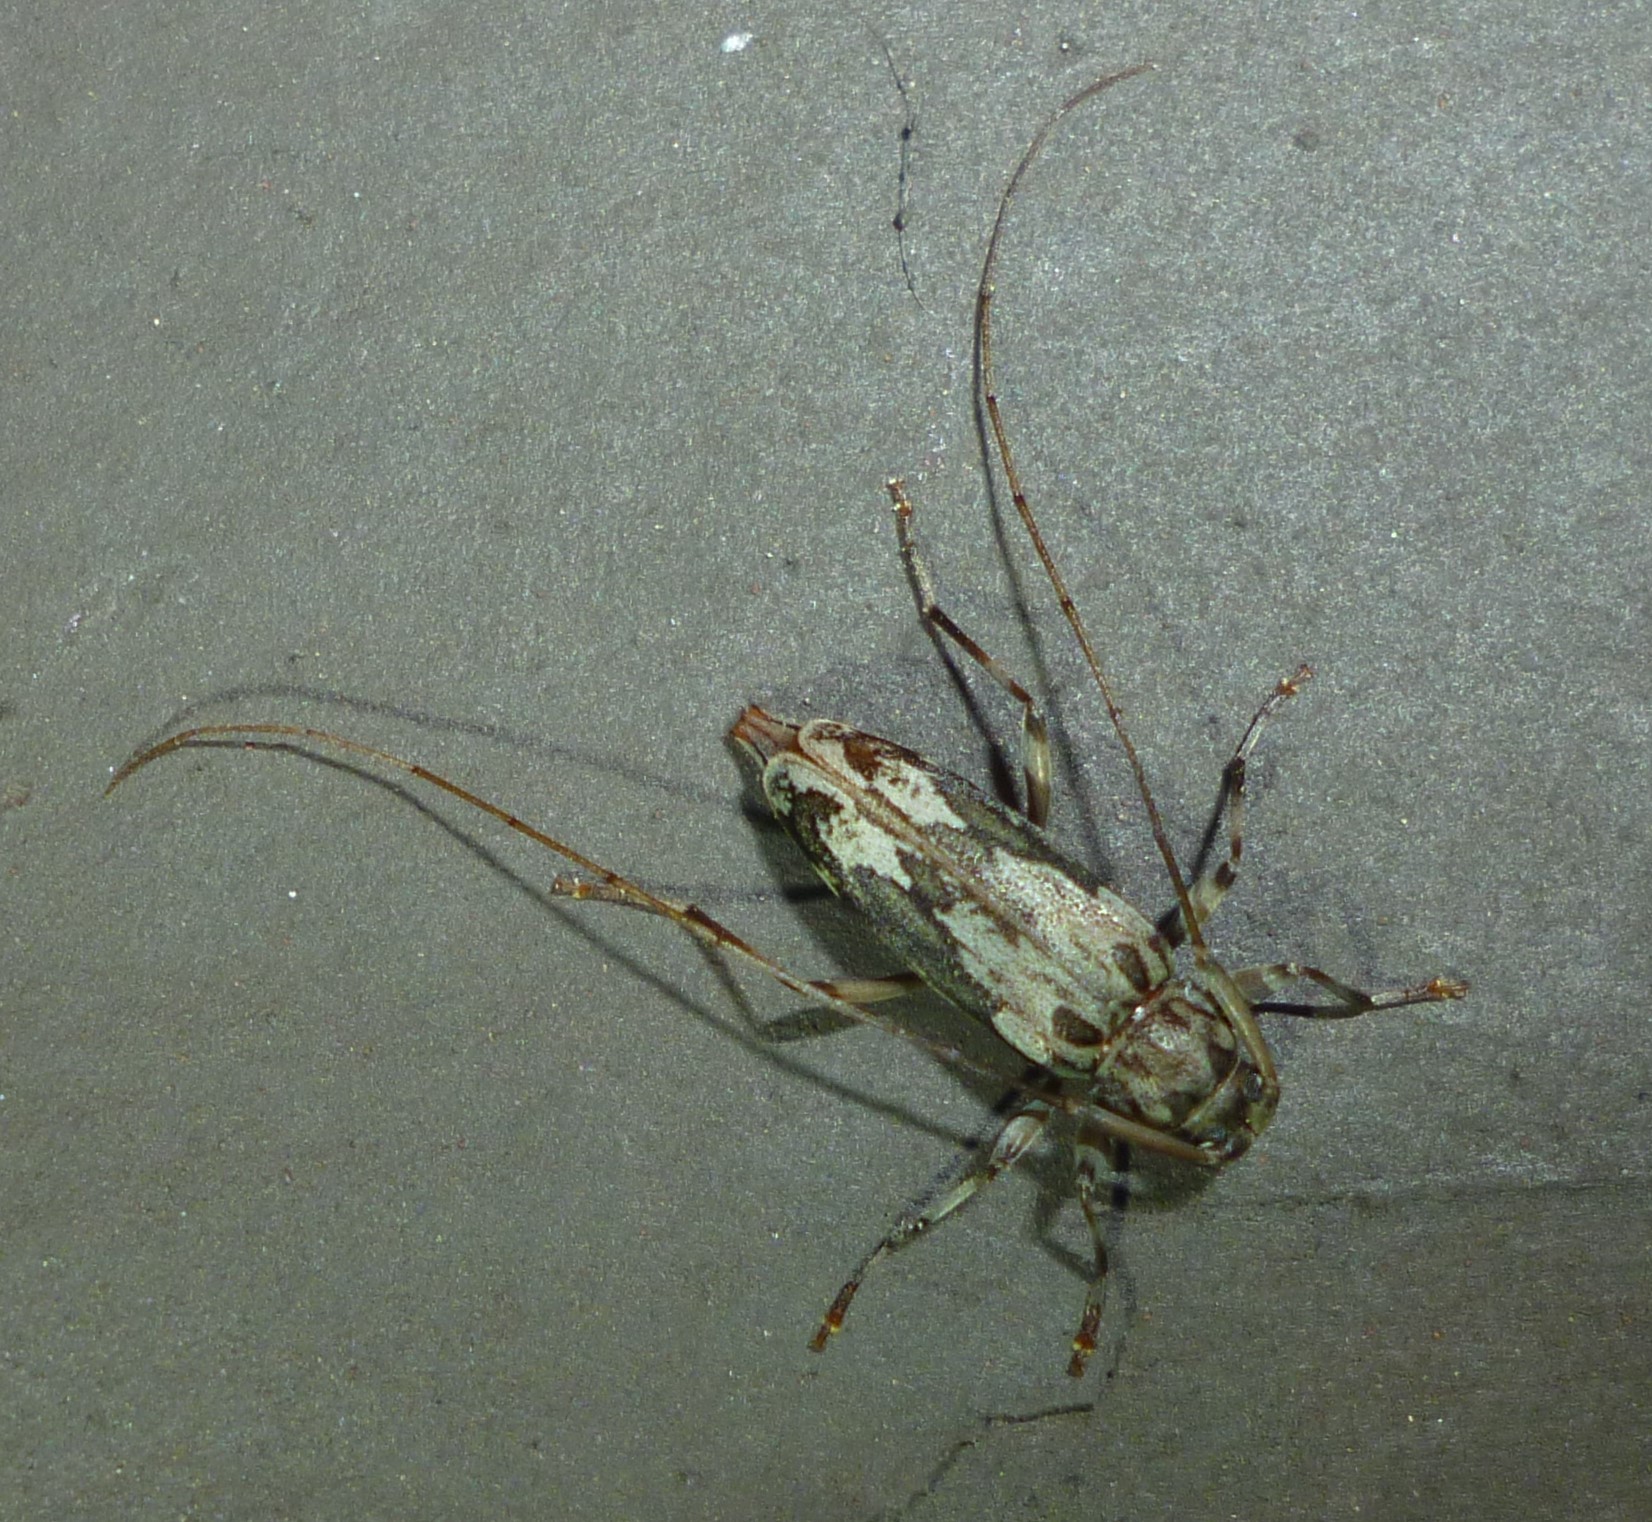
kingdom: Animalia
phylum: Arthropoda
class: Insecta
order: Coleoptera
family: Cerambycidae
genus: Lepturges
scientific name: Lepturges confluens
